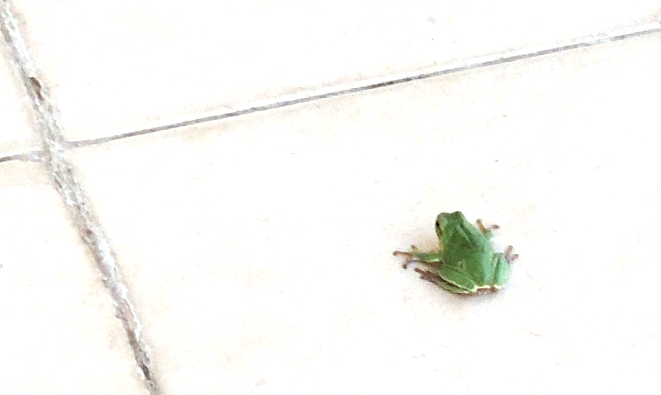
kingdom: Animalia
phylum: Chordata
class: Amphibia
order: Anura
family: Hylidae
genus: Hyla
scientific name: Hyla orientalis
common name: Caucasian treefrog
